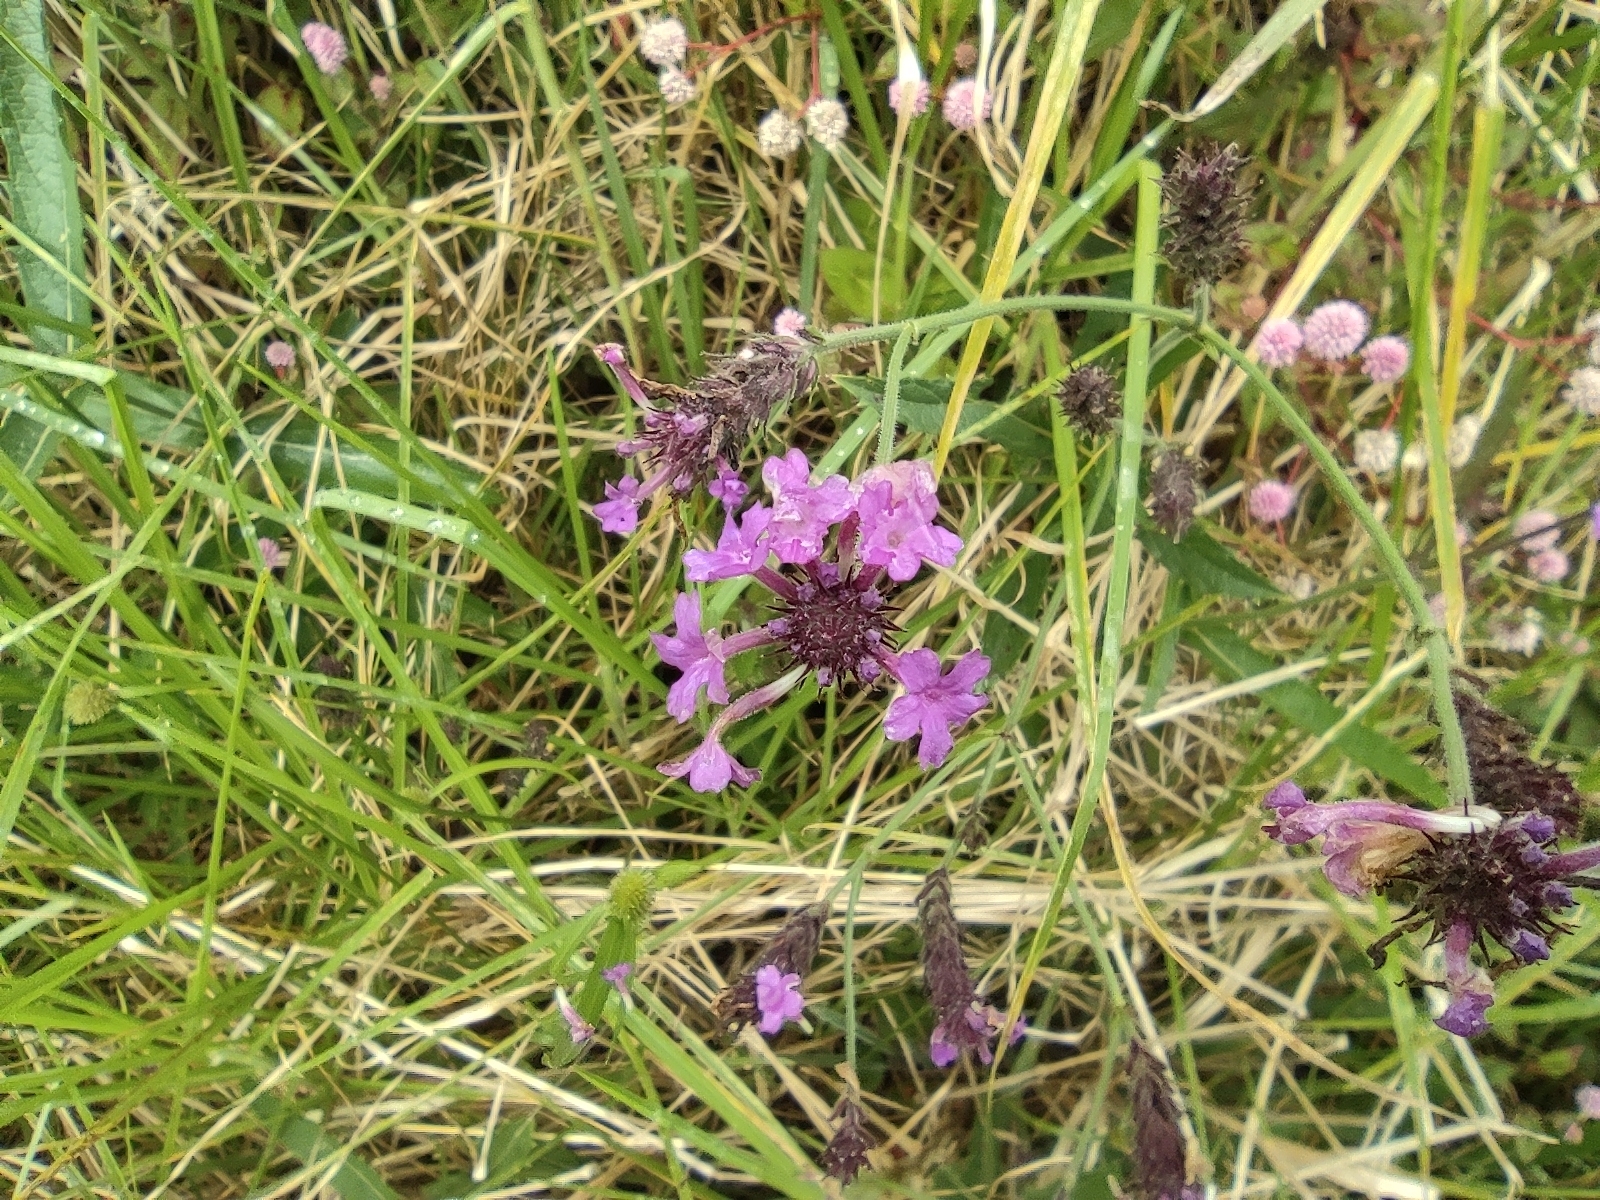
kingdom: Plantae
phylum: Tracheophyta
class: Magnoliopsida
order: Lamiales
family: Verbenaceae
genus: Verbena
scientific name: Verbena rigida
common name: Slender vervain
